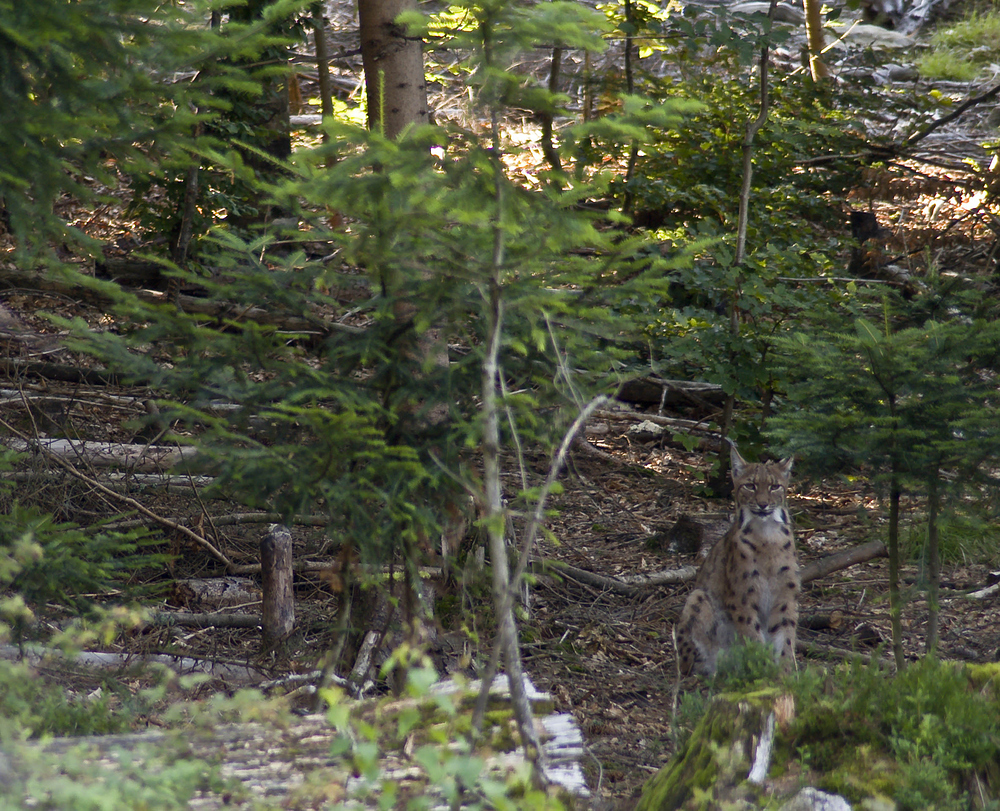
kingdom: Animalia
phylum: Chordata
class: Mammalia
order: Carnivora
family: Felidae
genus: Lynx
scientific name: Lynx lynx
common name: Eurasian lynx
